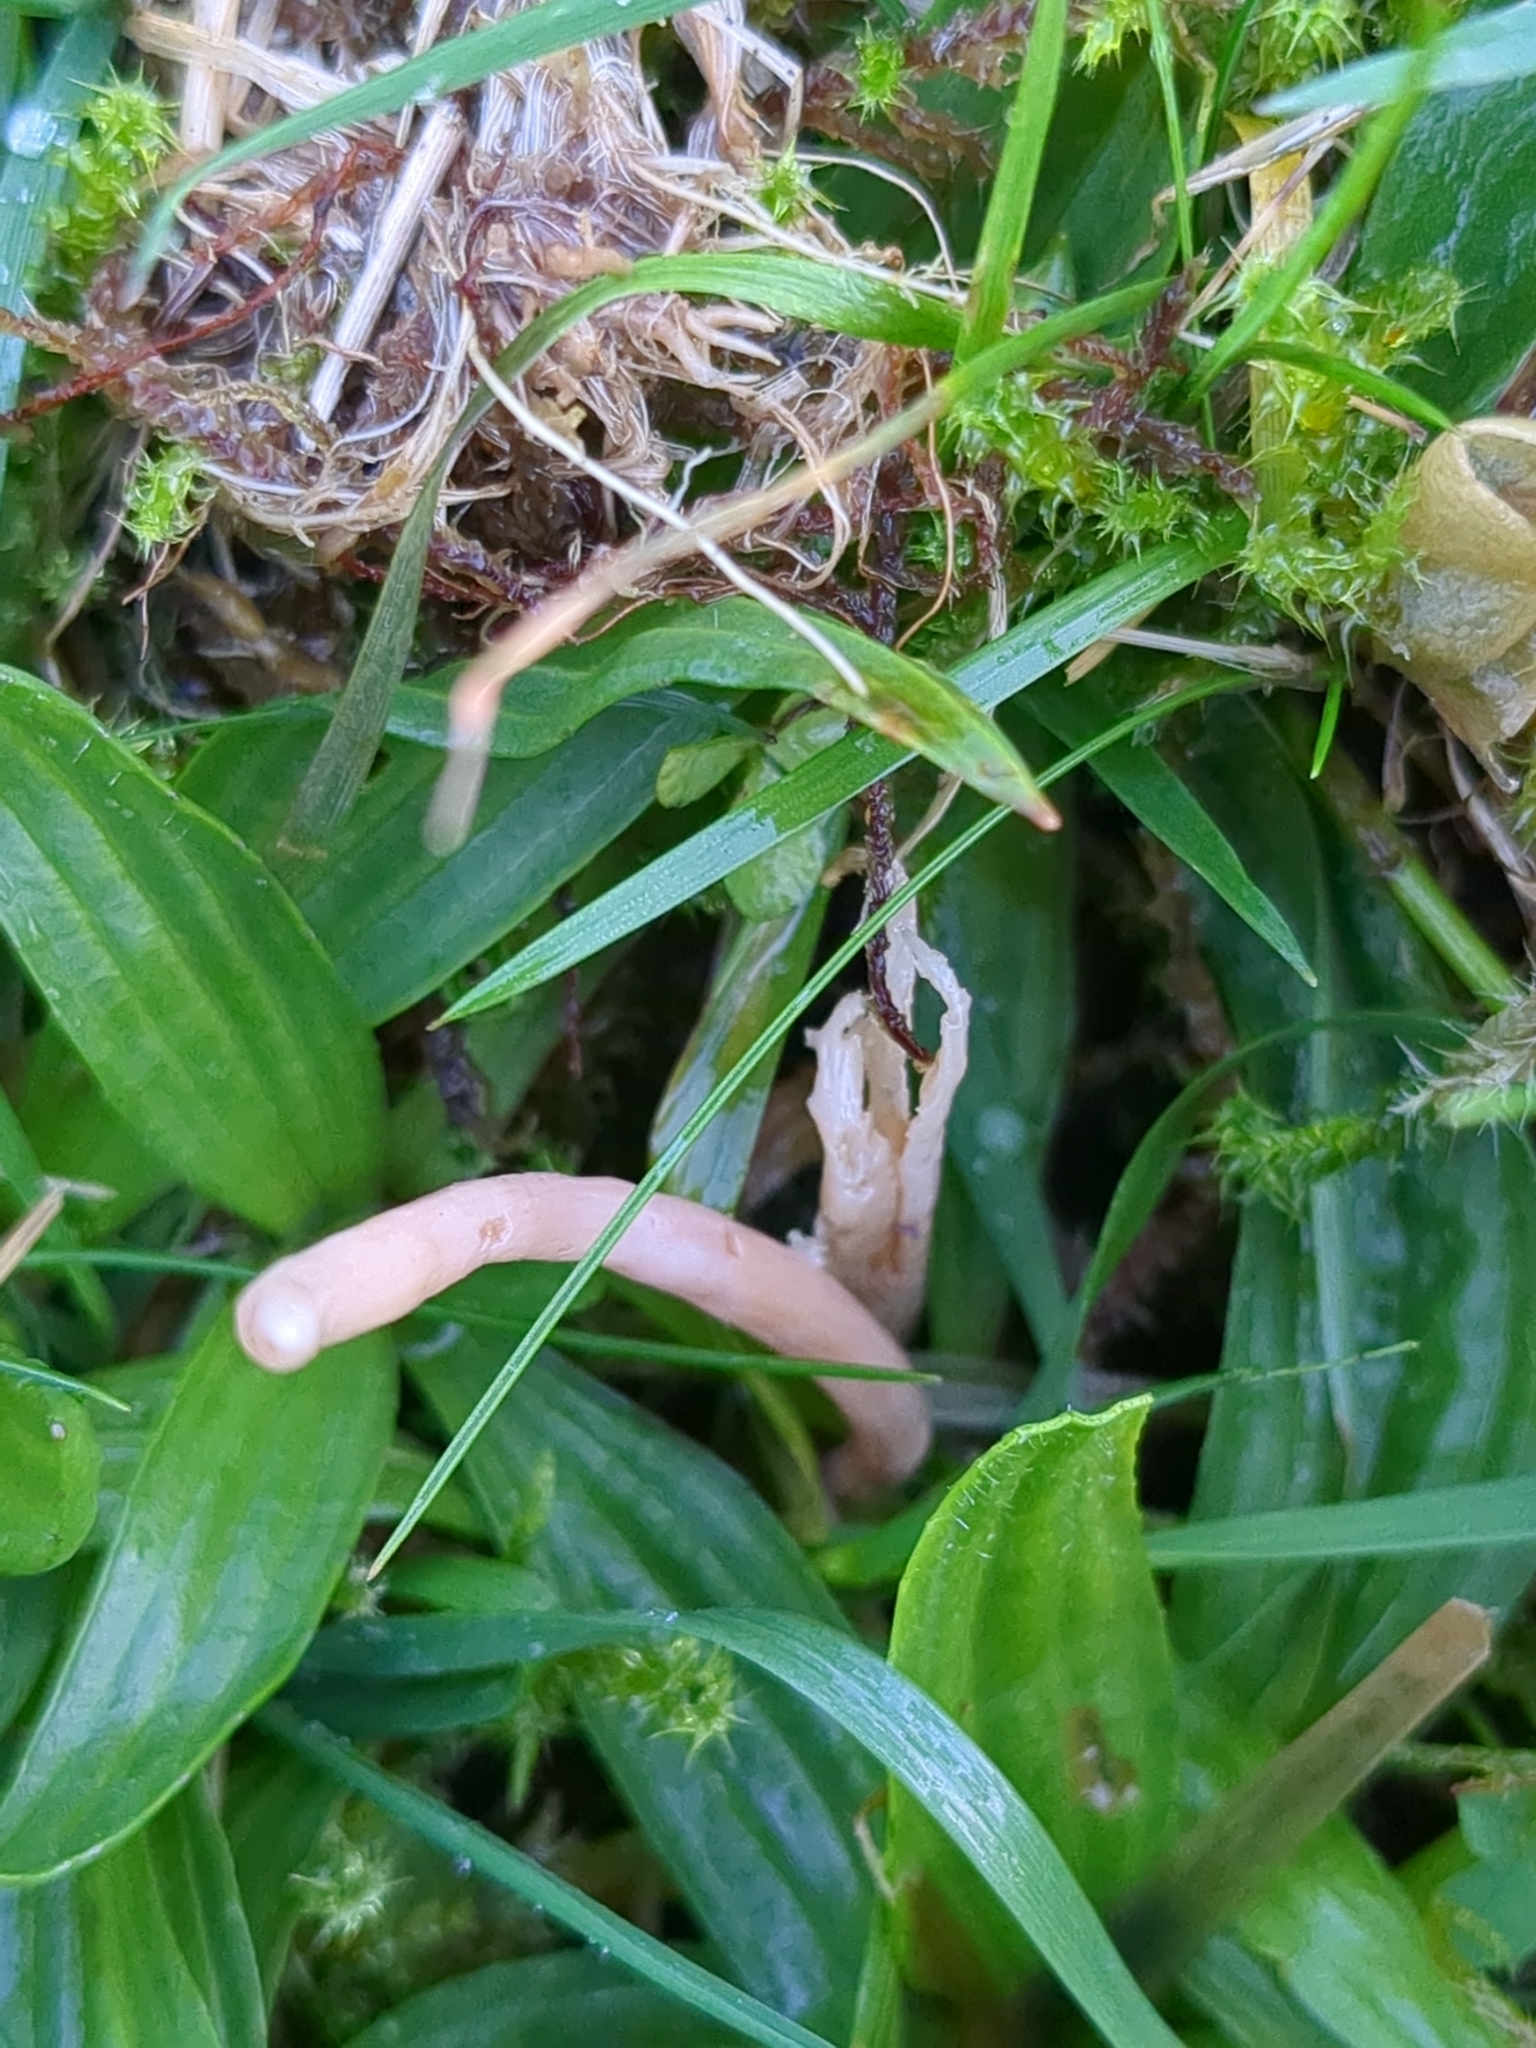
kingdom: Fungi
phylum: Basidiomycota
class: Agaricomycetes
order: Agaricales
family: Clavariaceae
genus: Clavaria
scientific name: Clavaria incarnata
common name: Skinny club
